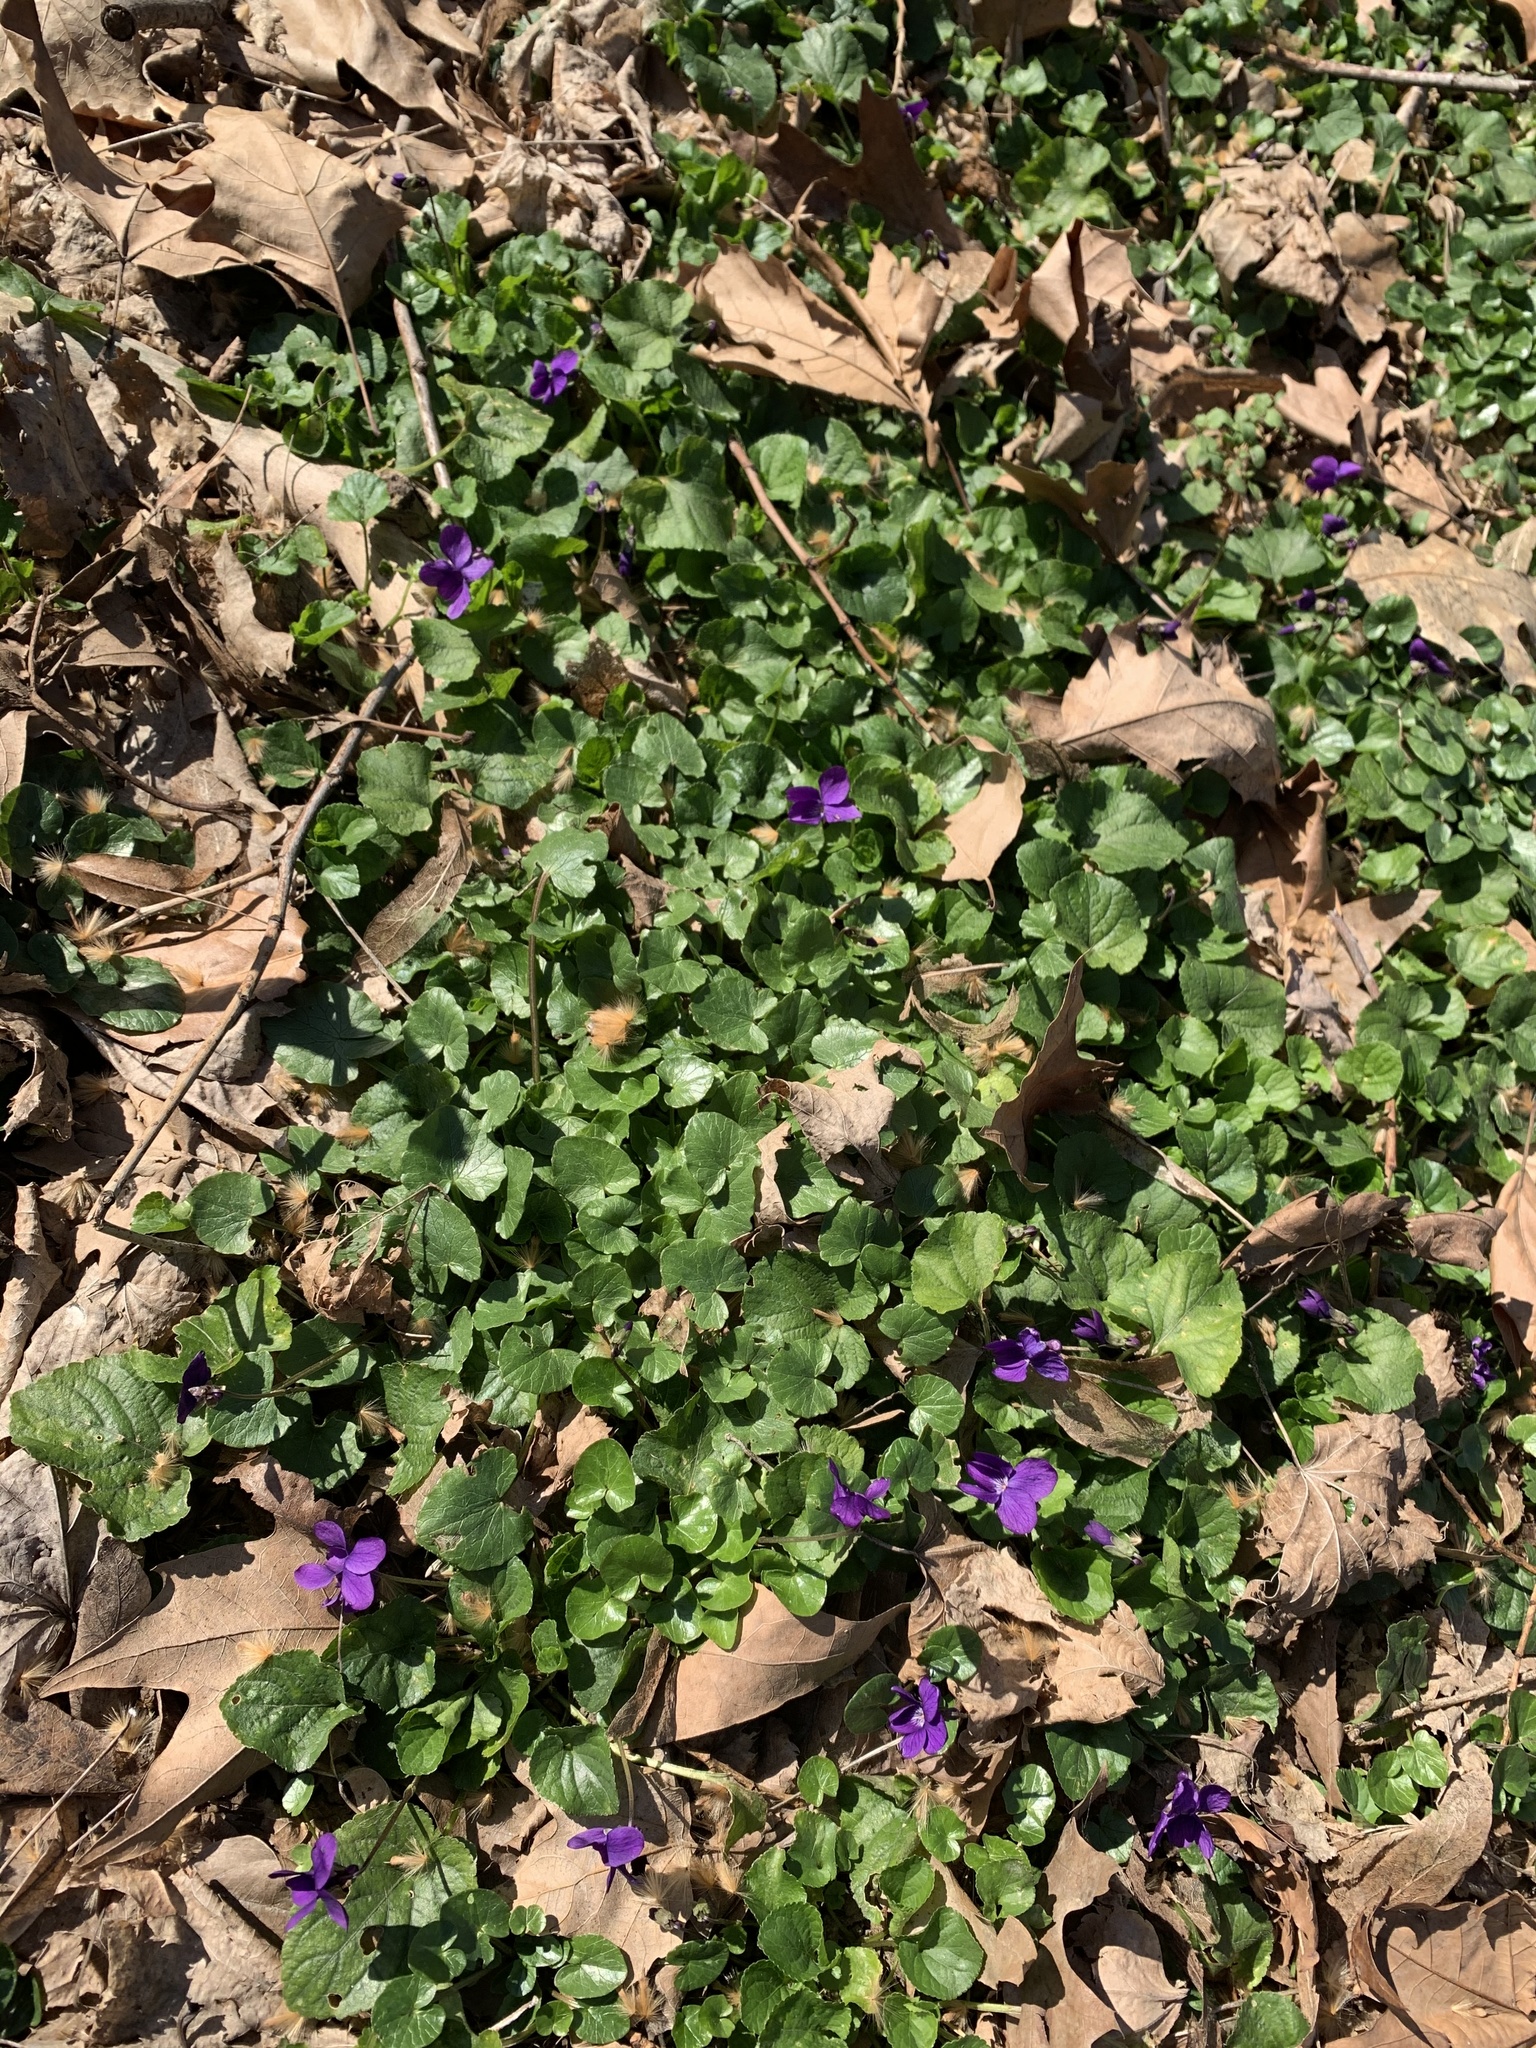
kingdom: Plantae
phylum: Tracheophyta
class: Magnoliopsida
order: Malpighiales
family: Violaceae
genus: Viola
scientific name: Viola odorata
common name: Sweet violet
